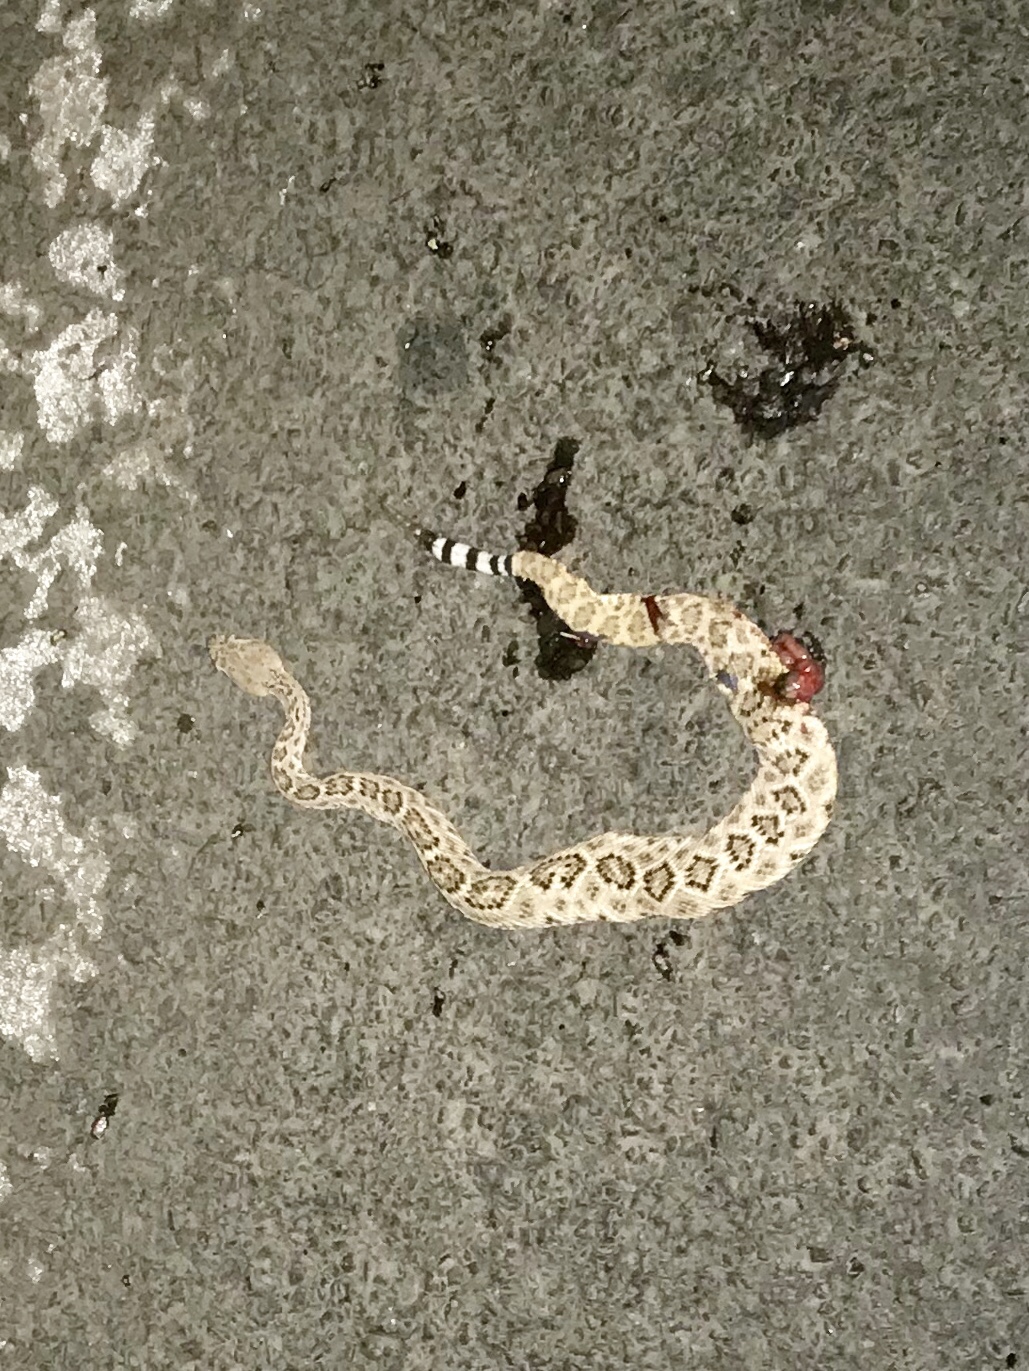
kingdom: Animalia
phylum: Chordata
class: Squamata
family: Viperidae
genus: Crotalus
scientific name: Crotalus atrox
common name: Western diamond-backed rattlesnake
